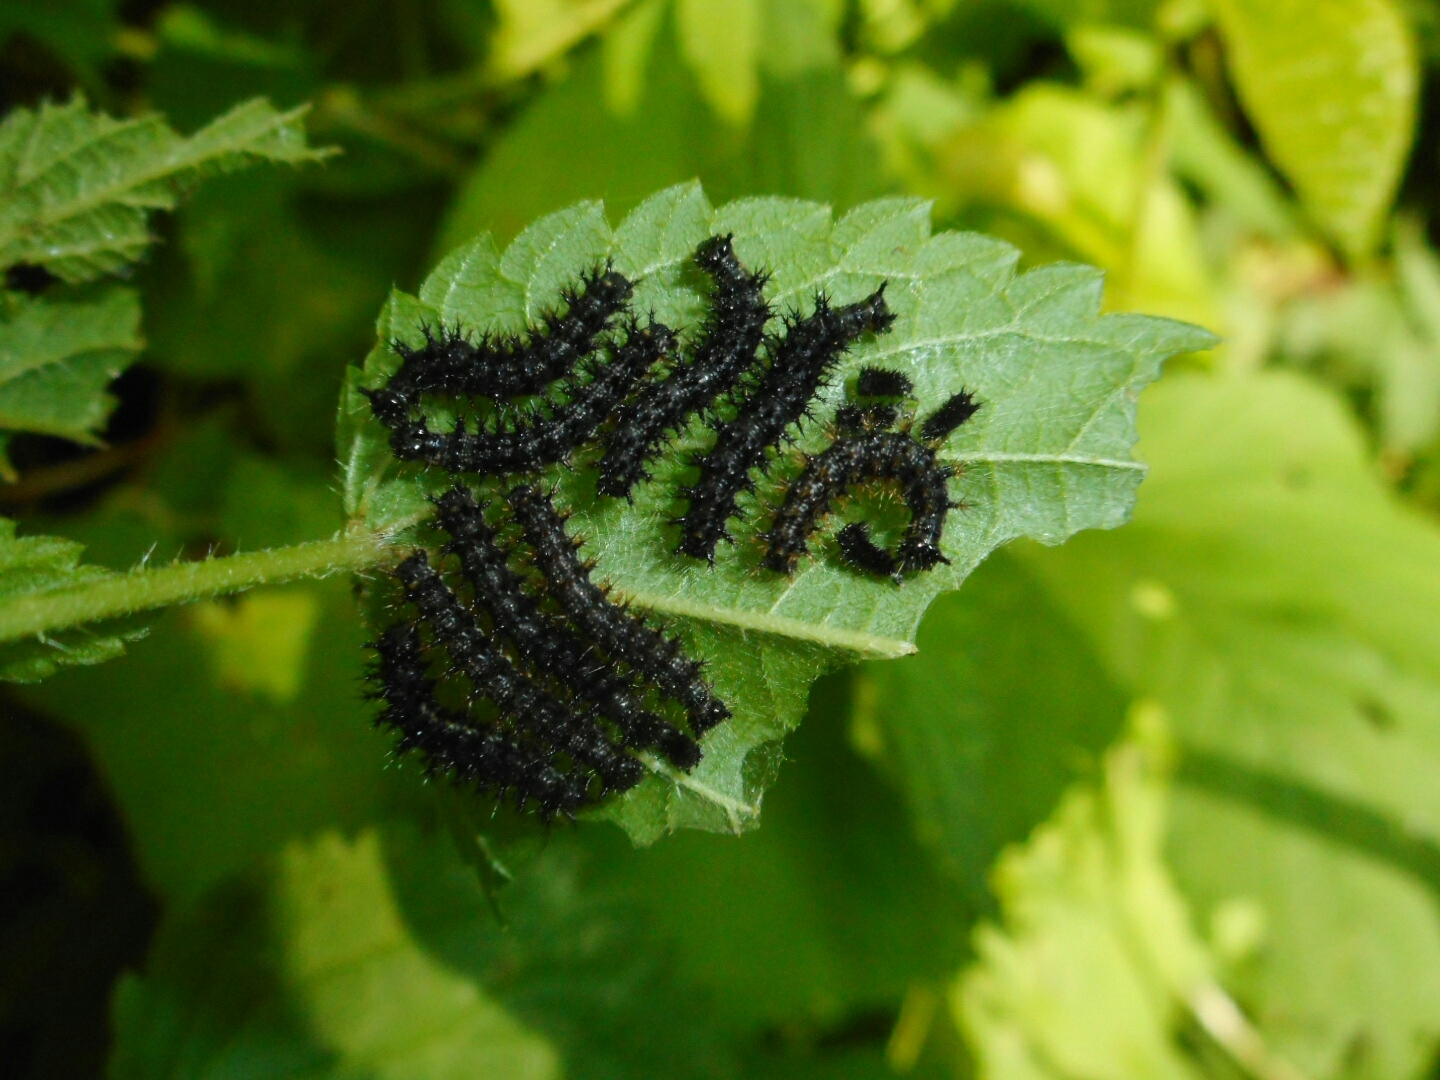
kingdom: Animalia
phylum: Arthropoda
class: Insecta
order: Lepidoptera
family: Nymphalidae
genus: Araschnia
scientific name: Araschnia levana
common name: Map butterfly
